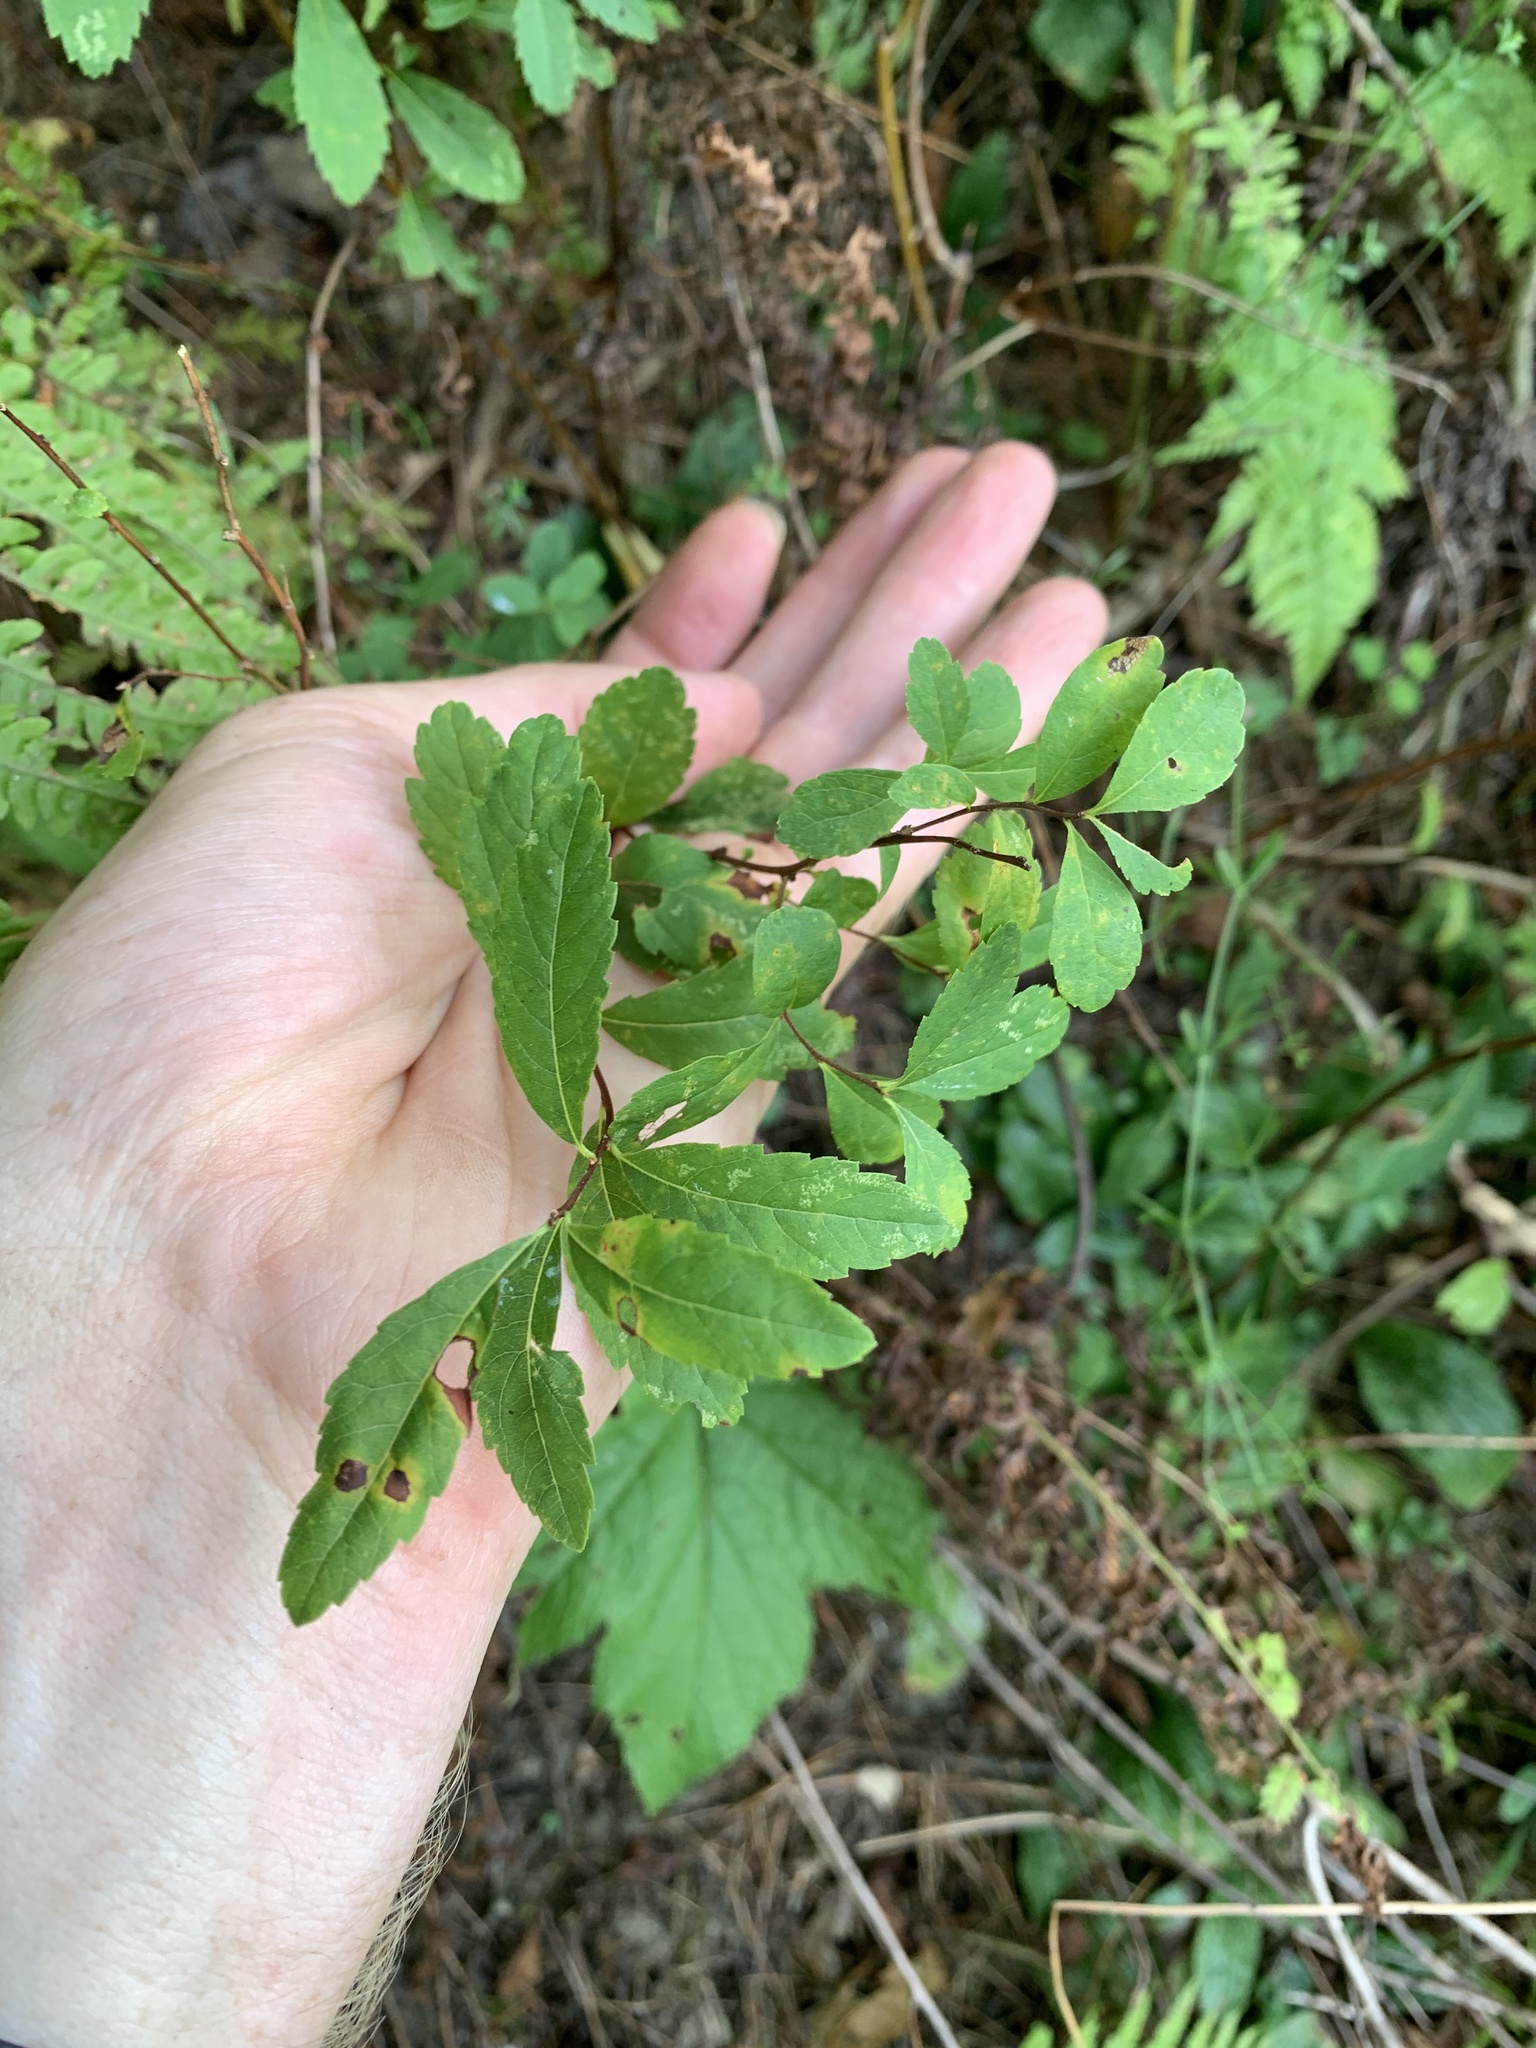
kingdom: Plantae
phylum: Tracheophyta
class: Magnoliopsida
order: Rosales
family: Rosaceae
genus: Spiraea
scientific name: Spiraea alba
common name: Pale bridewort
